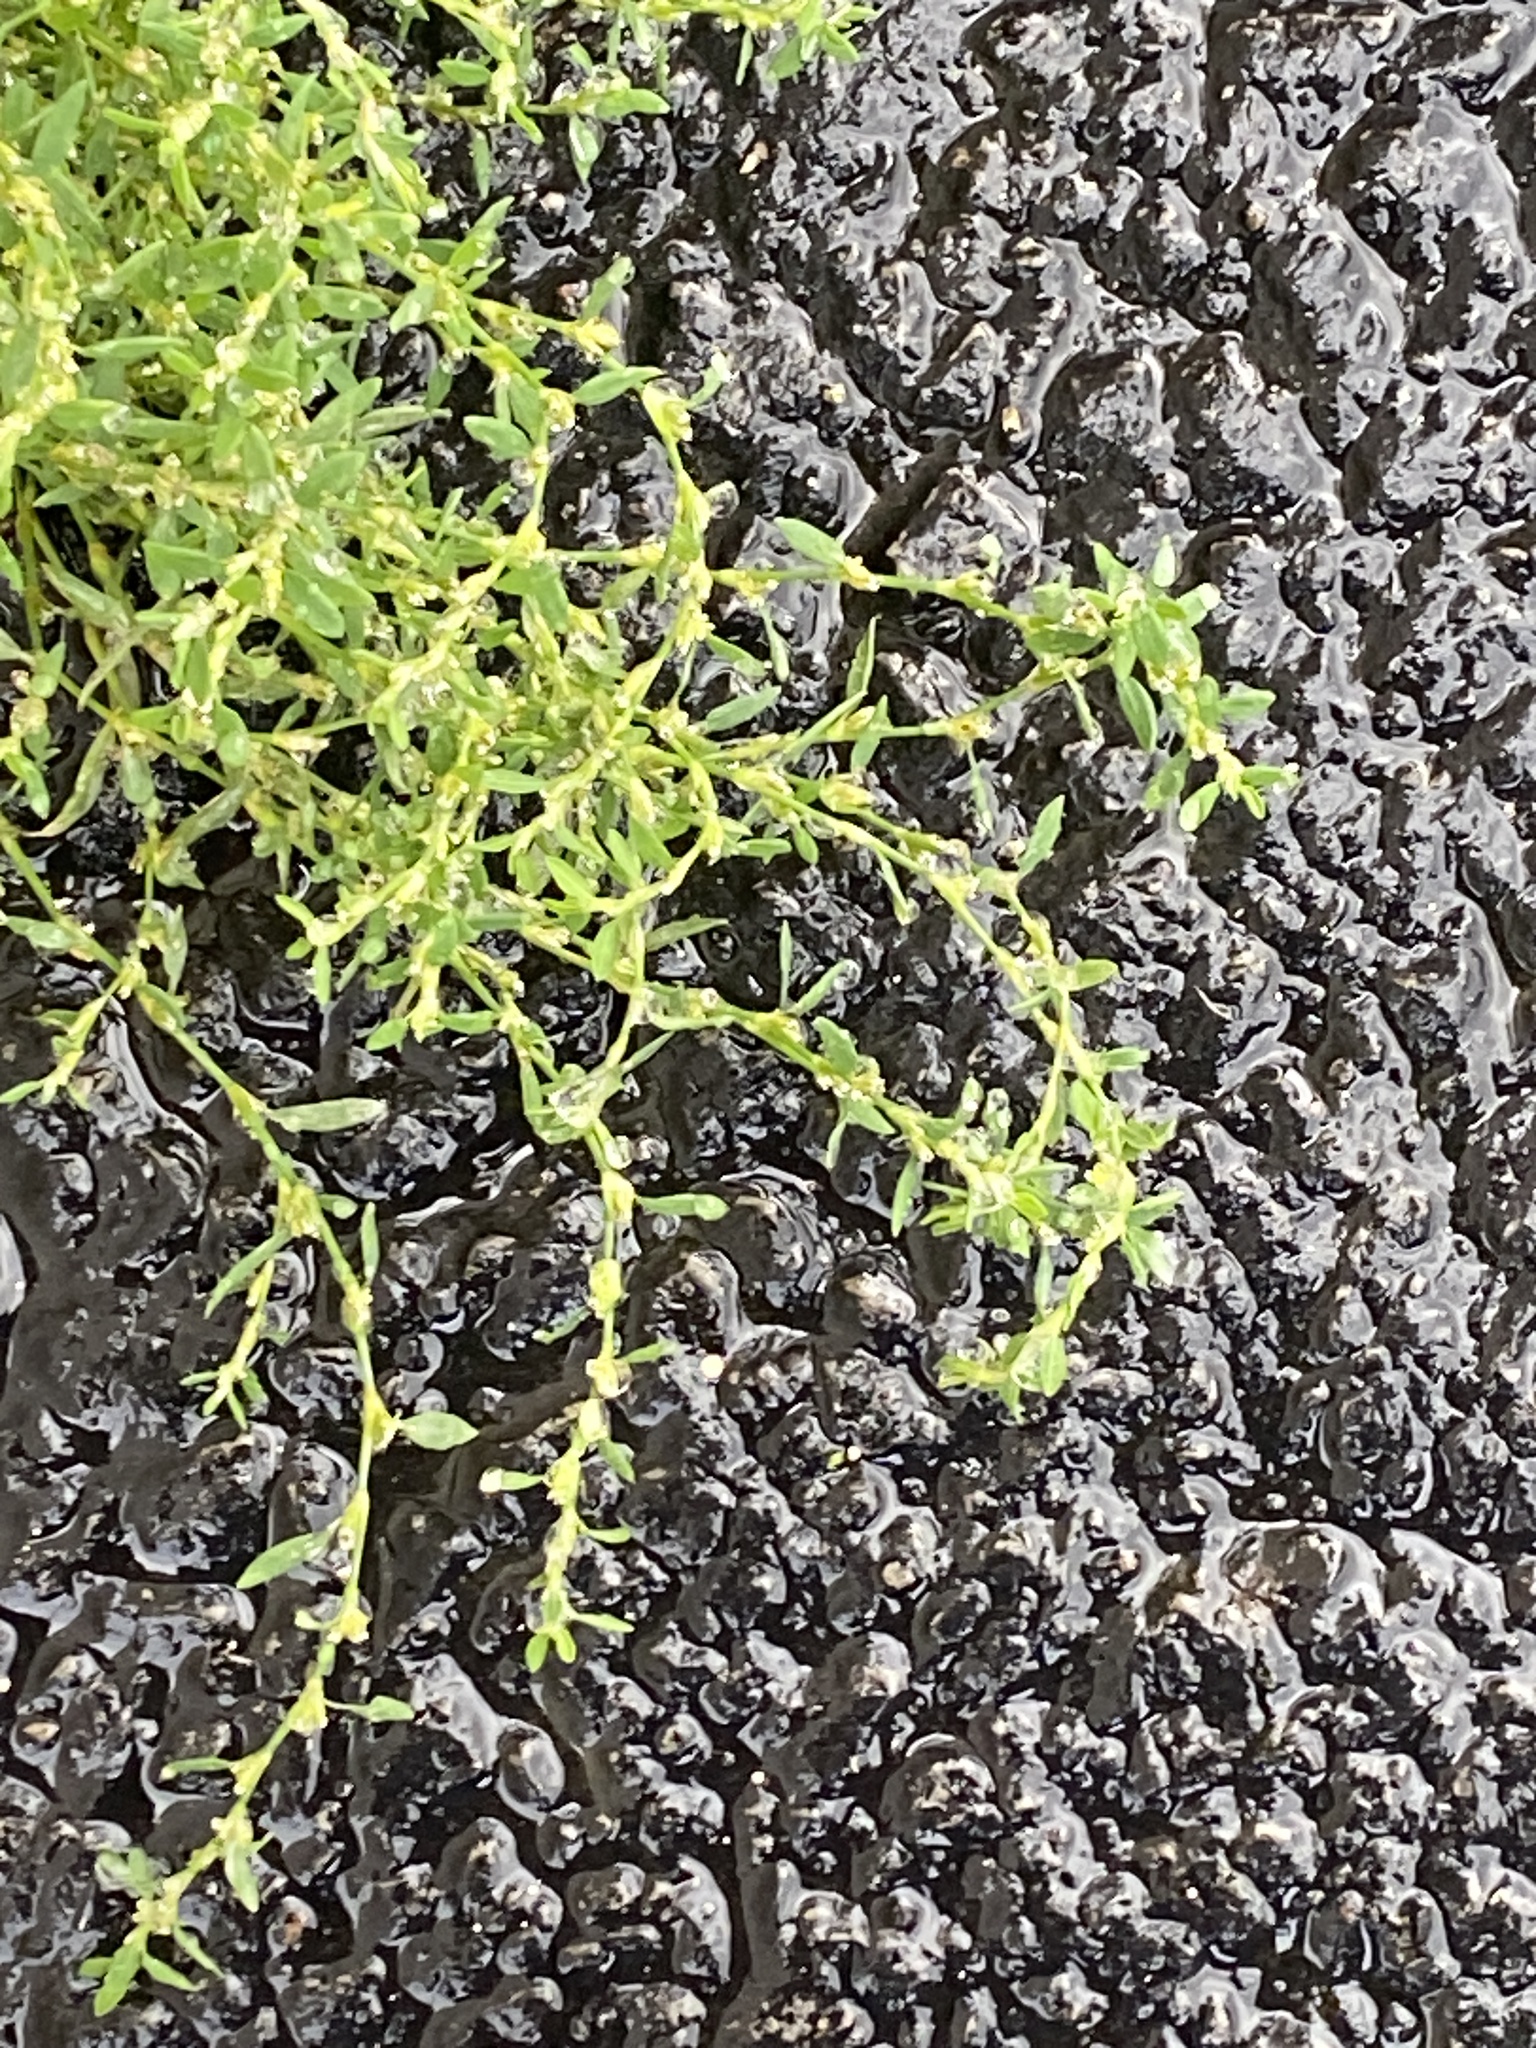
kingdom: Plantae
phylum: Tracheophyta
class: Magnoliopsida
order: Caryophyllales
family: Polygonaceae
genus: Polygonum
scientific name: Polygonum aviculare
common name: Prostrate knotweed
